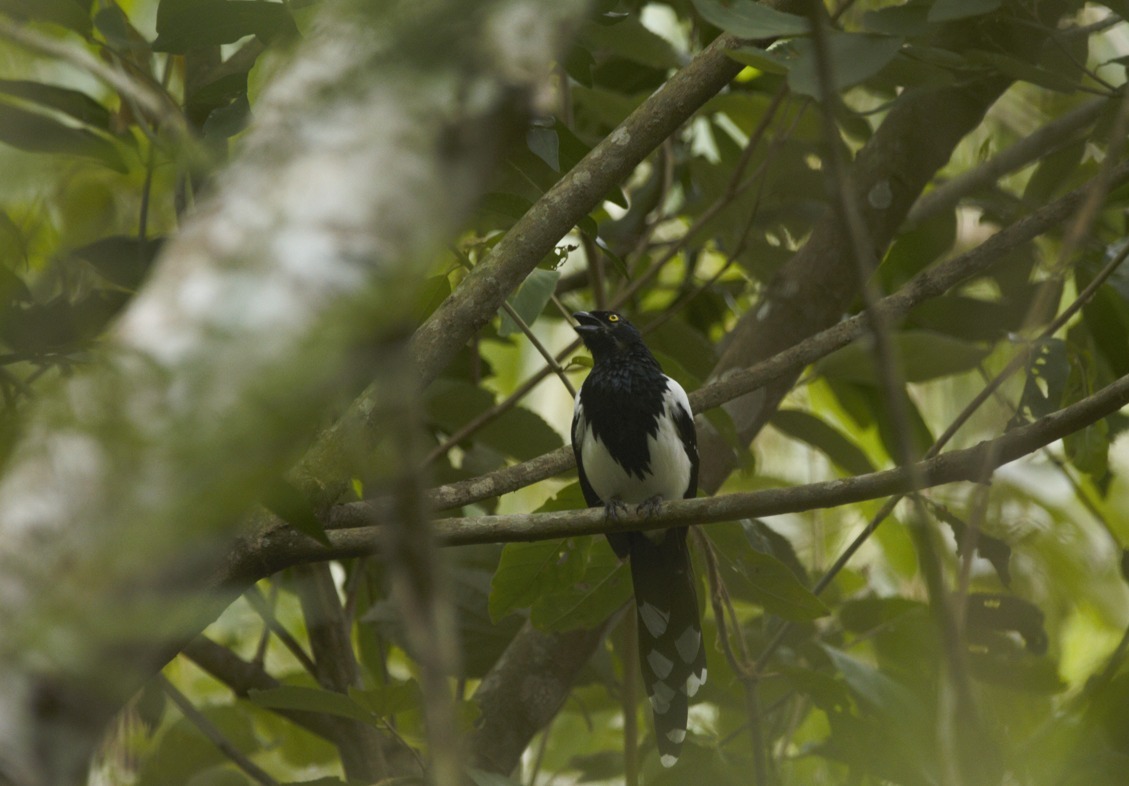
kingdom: Animalia
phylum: Chordata
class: Aves
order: Passeriformes
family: Thraupidae
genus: Cissopis
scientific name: Cissopis leverianus
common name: Magpie tanager
